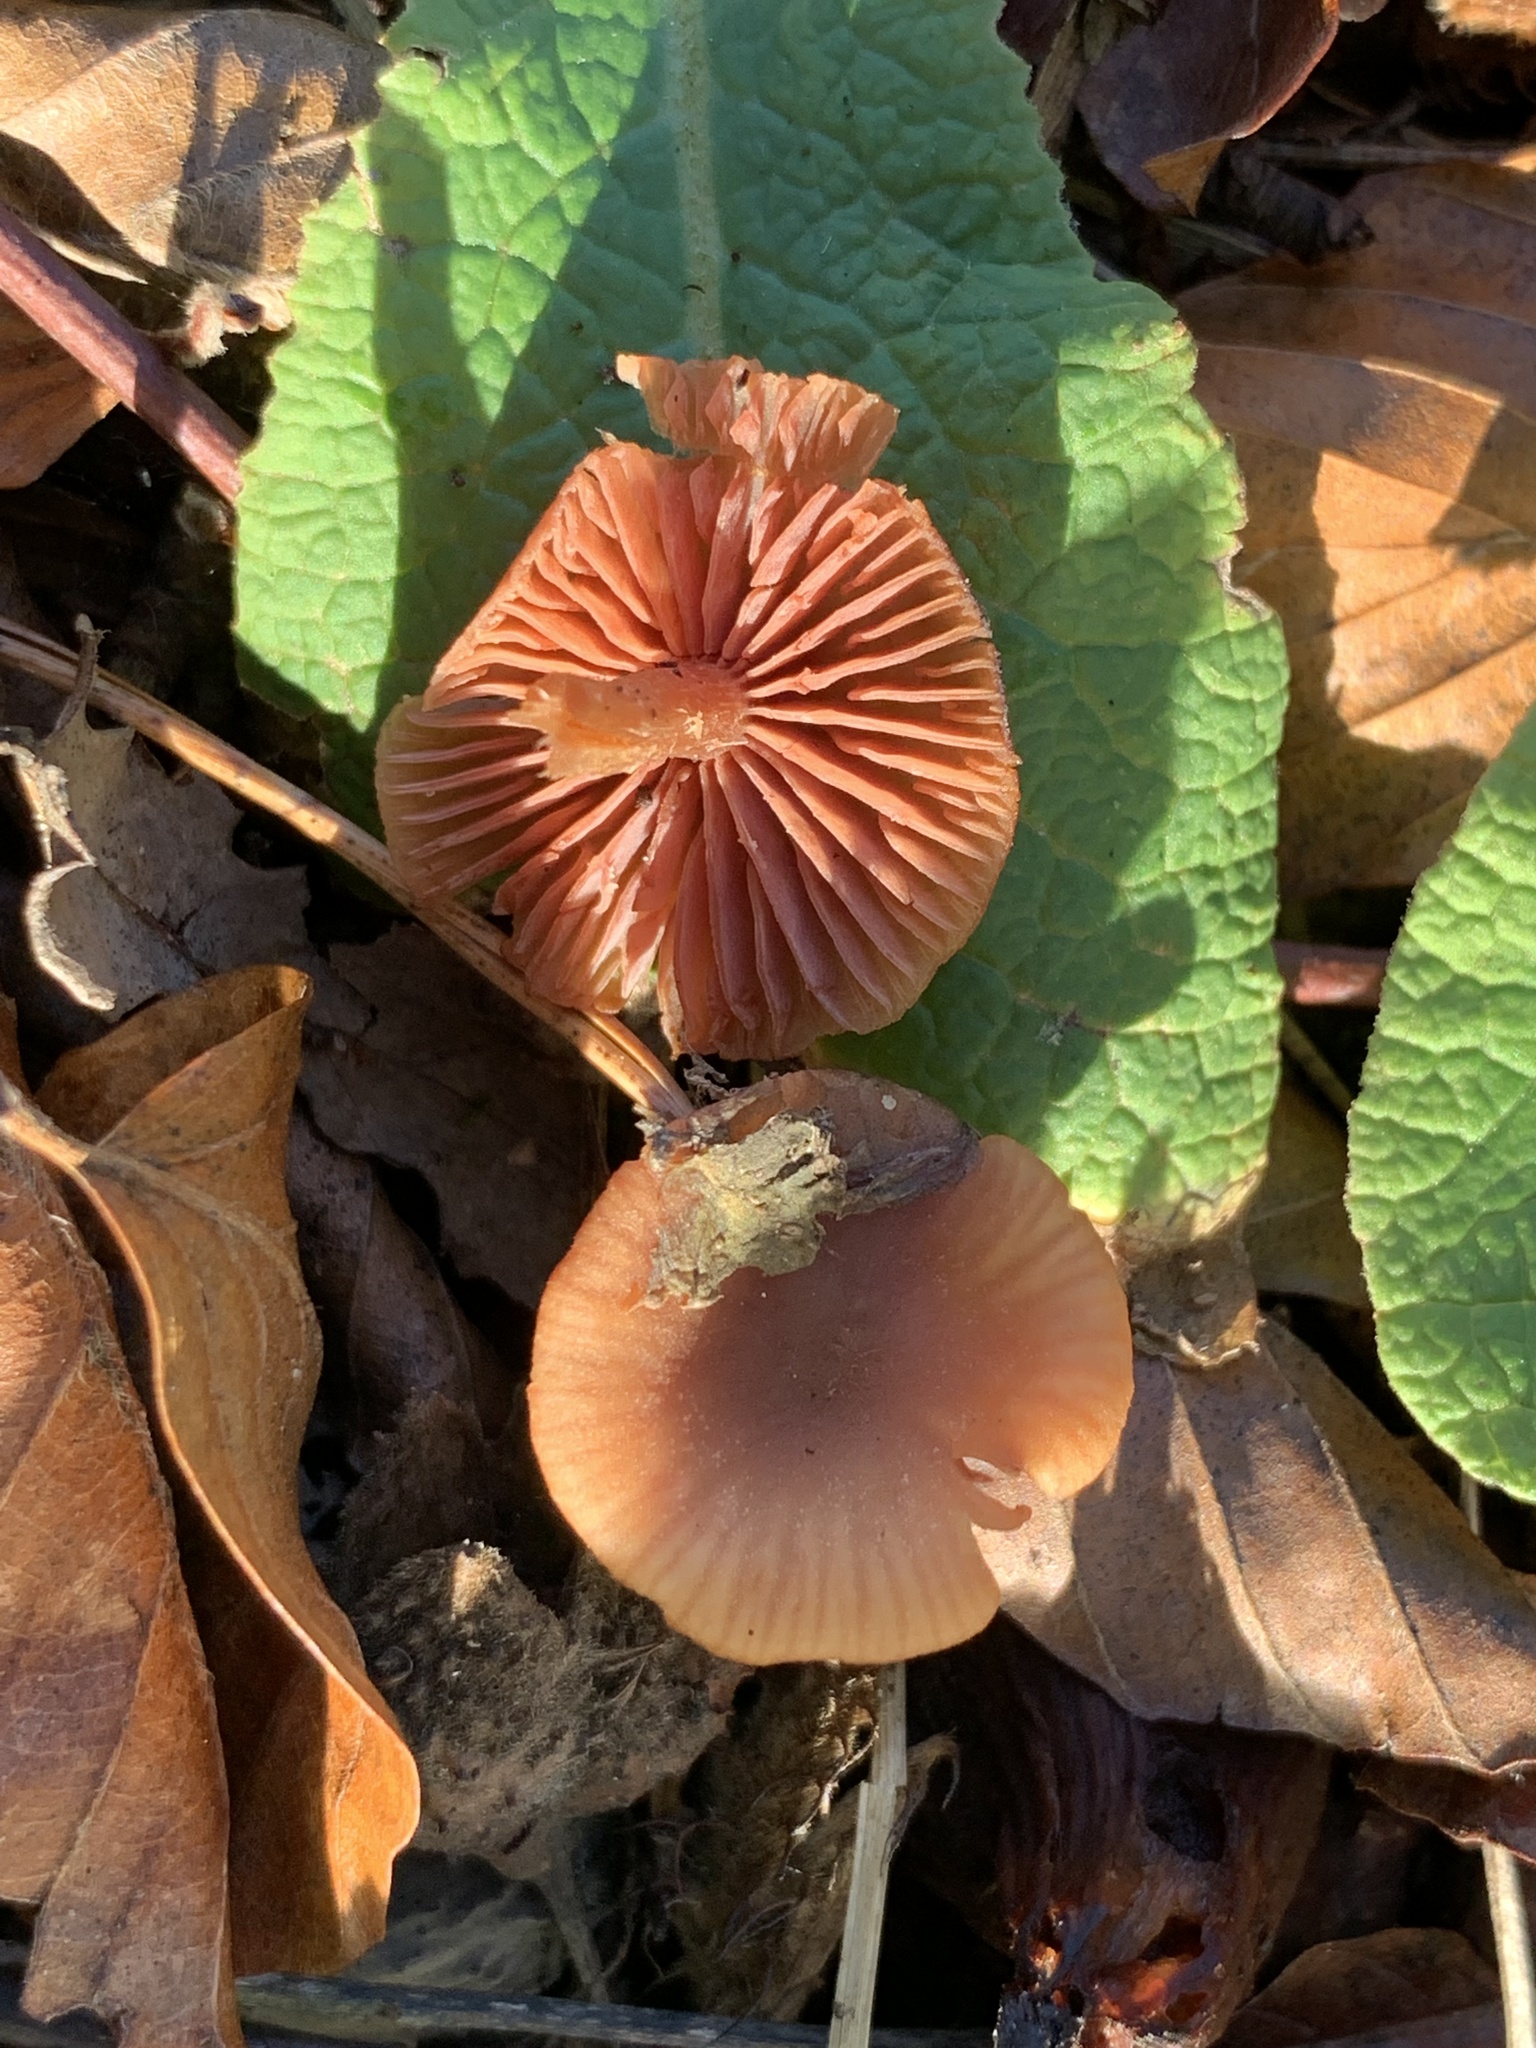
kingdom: Fungi
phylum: Basidiomycota
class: Agaricomycetes
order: Agaricales
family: Hydnangiaceae
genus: Laccaria
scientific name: Laccaria laccata
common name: Deceiver
